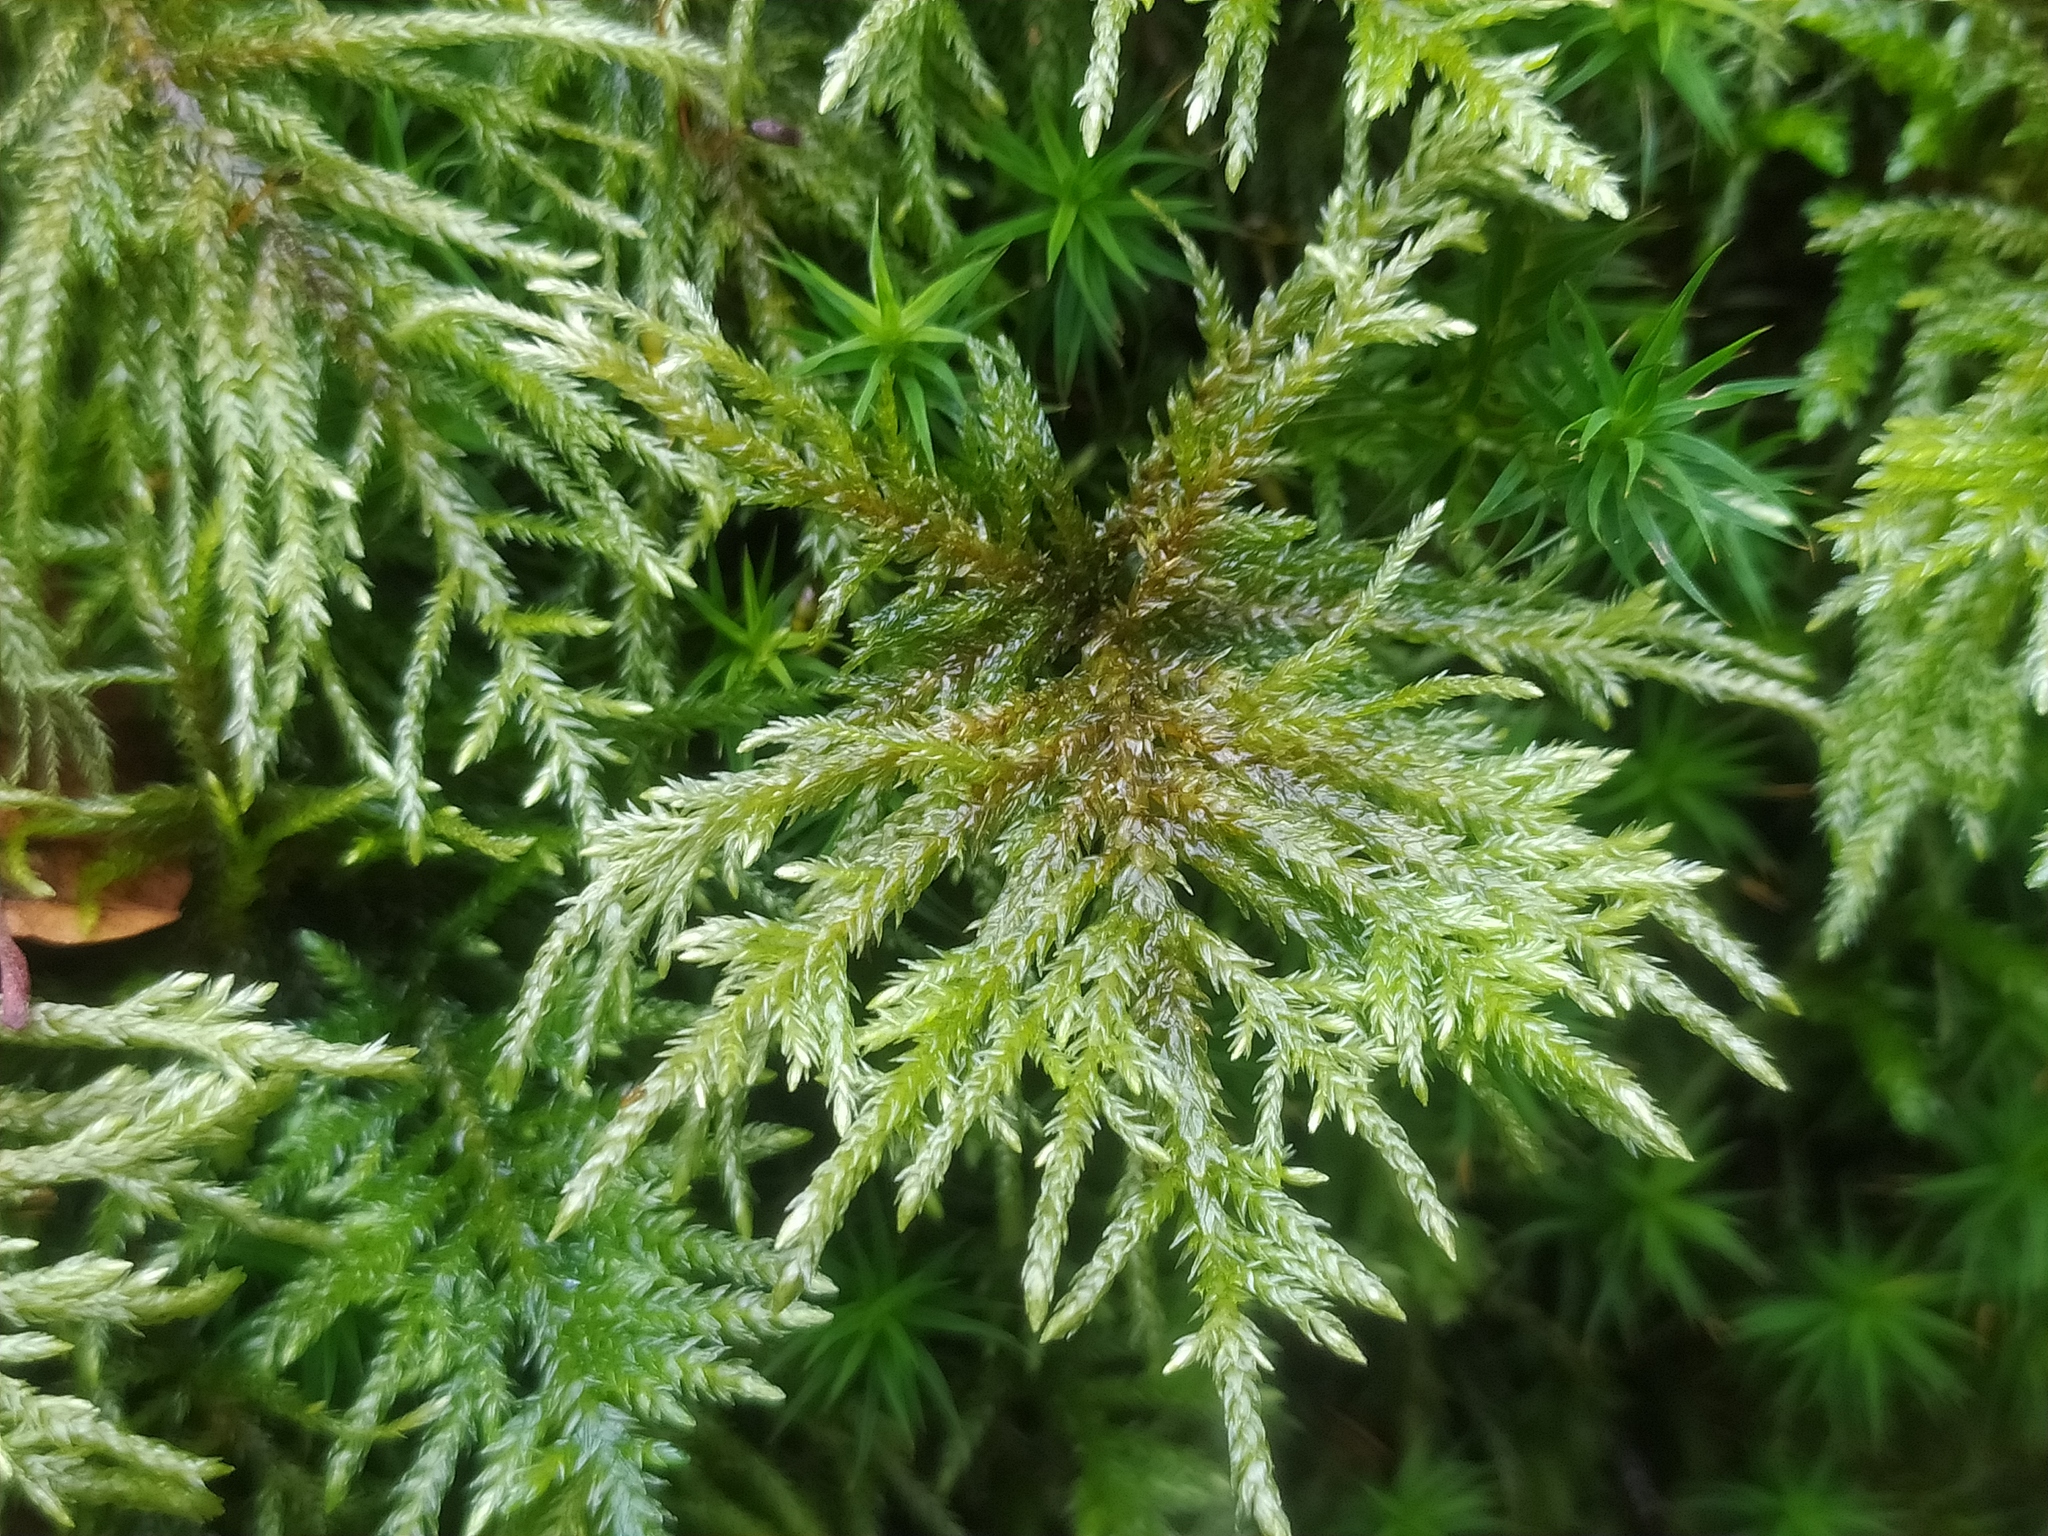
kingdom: Plantae
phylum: Bryophyta
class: Bryopsida
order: Hypnales
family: Neckeraceae
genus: Thamnobryum
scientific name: Thamnobryum alopecurum
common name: Fox-tail feather-moss
